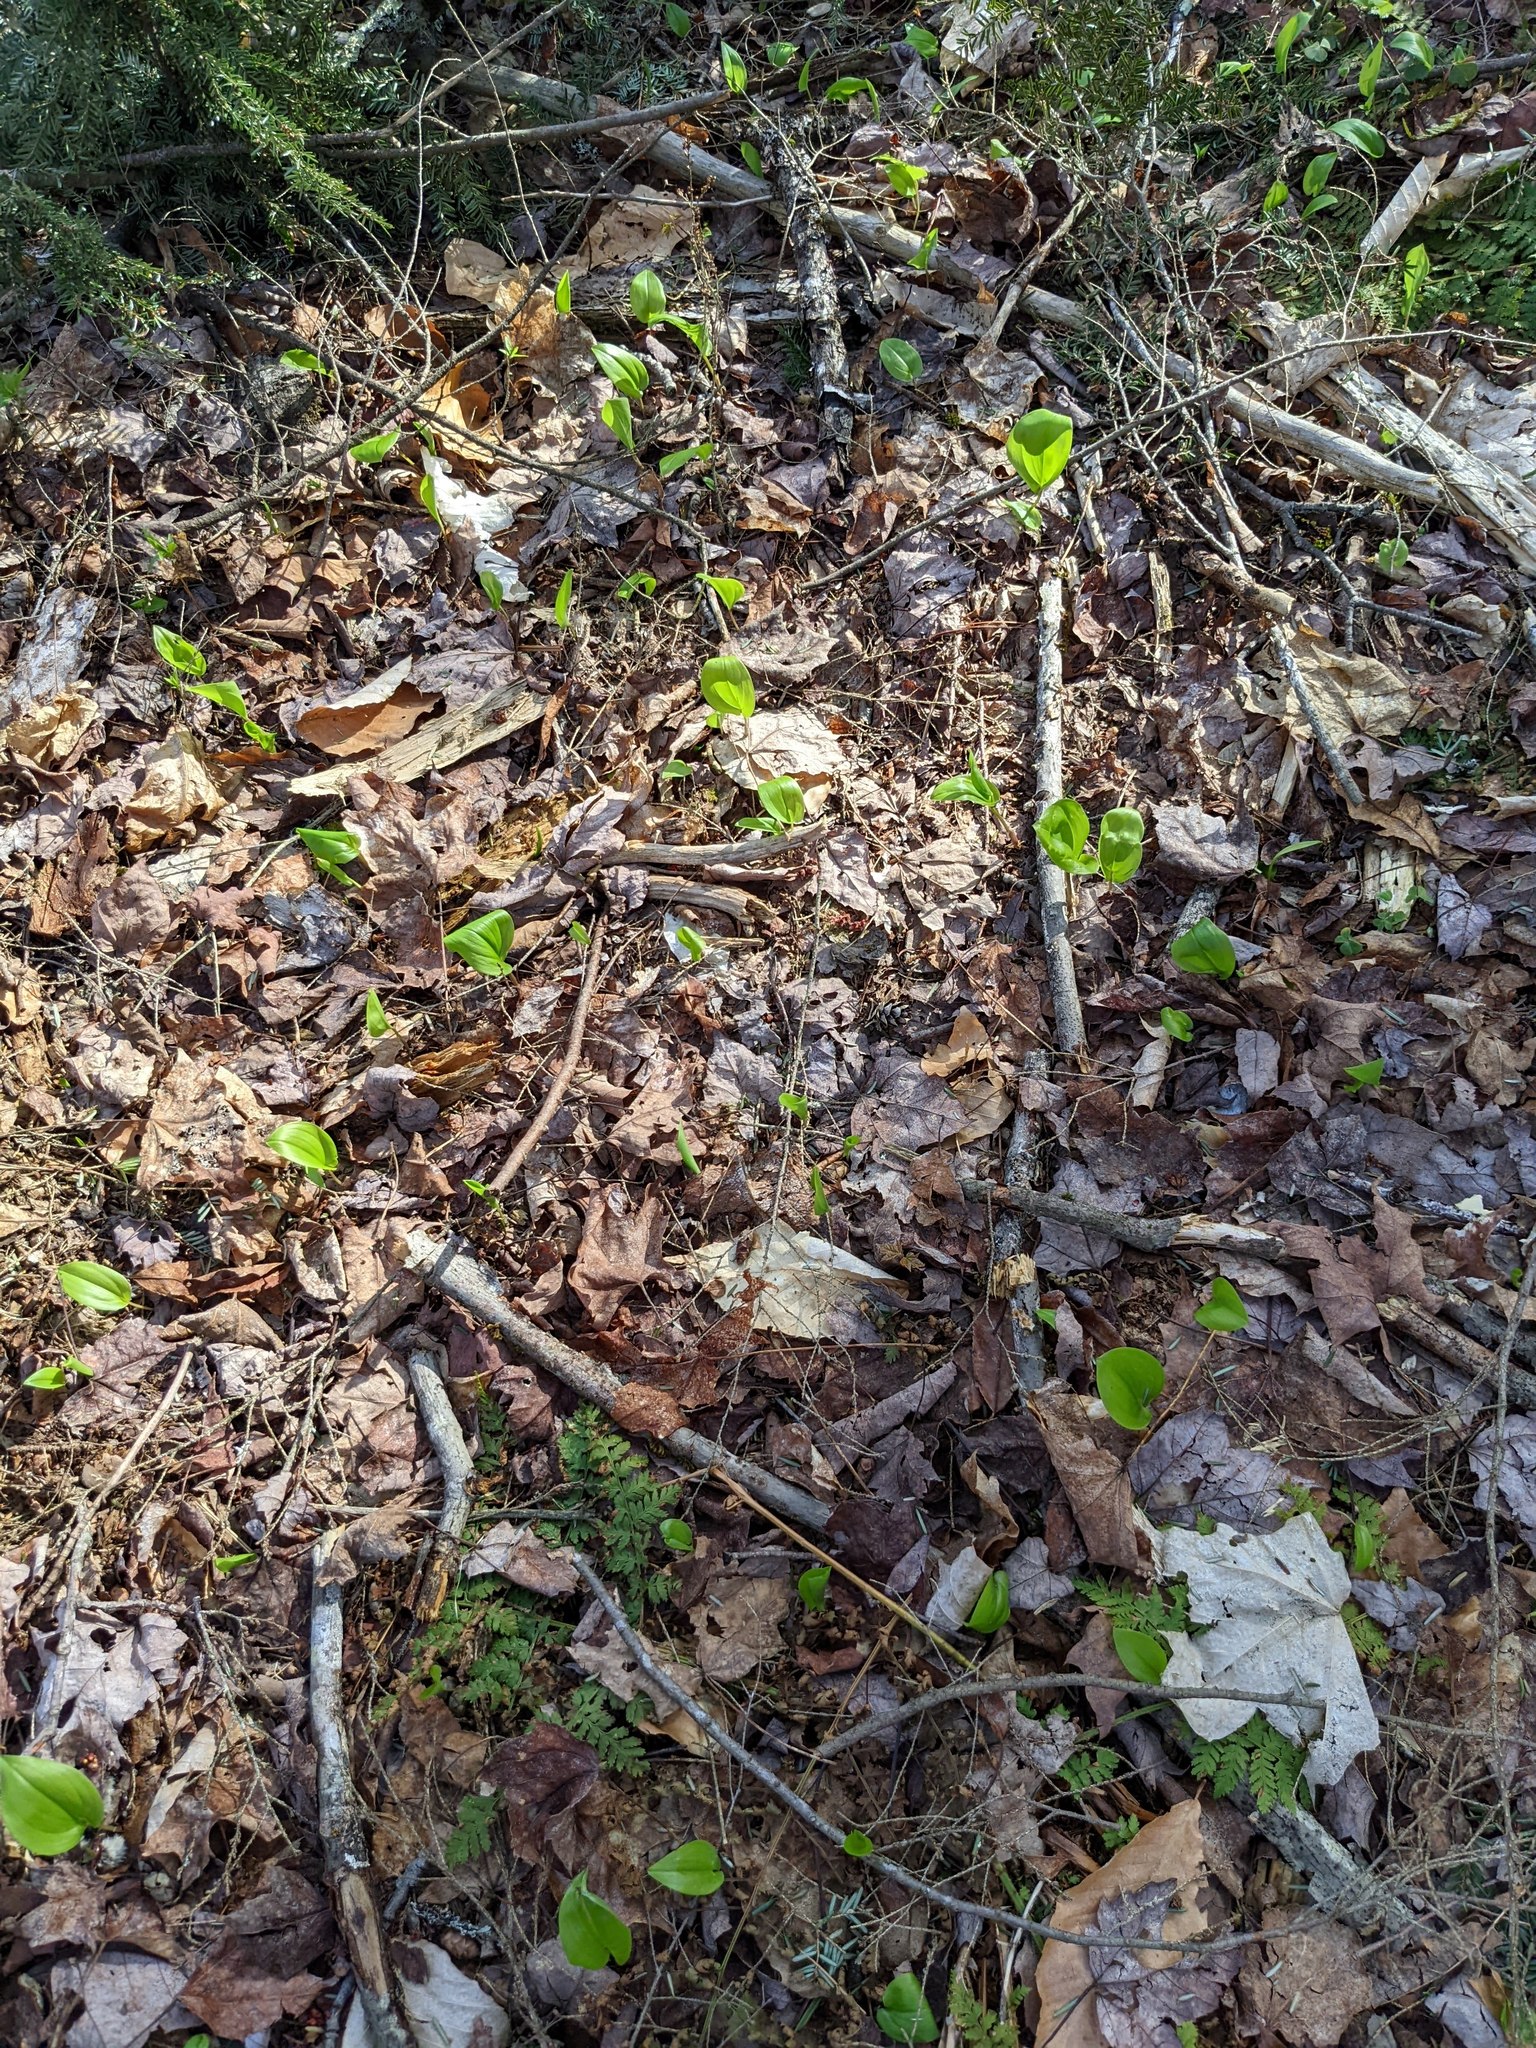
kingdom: Plantae
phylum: Tracheophyta
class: Liliopsida
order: Asparagales
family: Asparagaceae
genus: Maianthemum
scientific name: Maianthemum canadense
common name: False lily-of-the-valley
